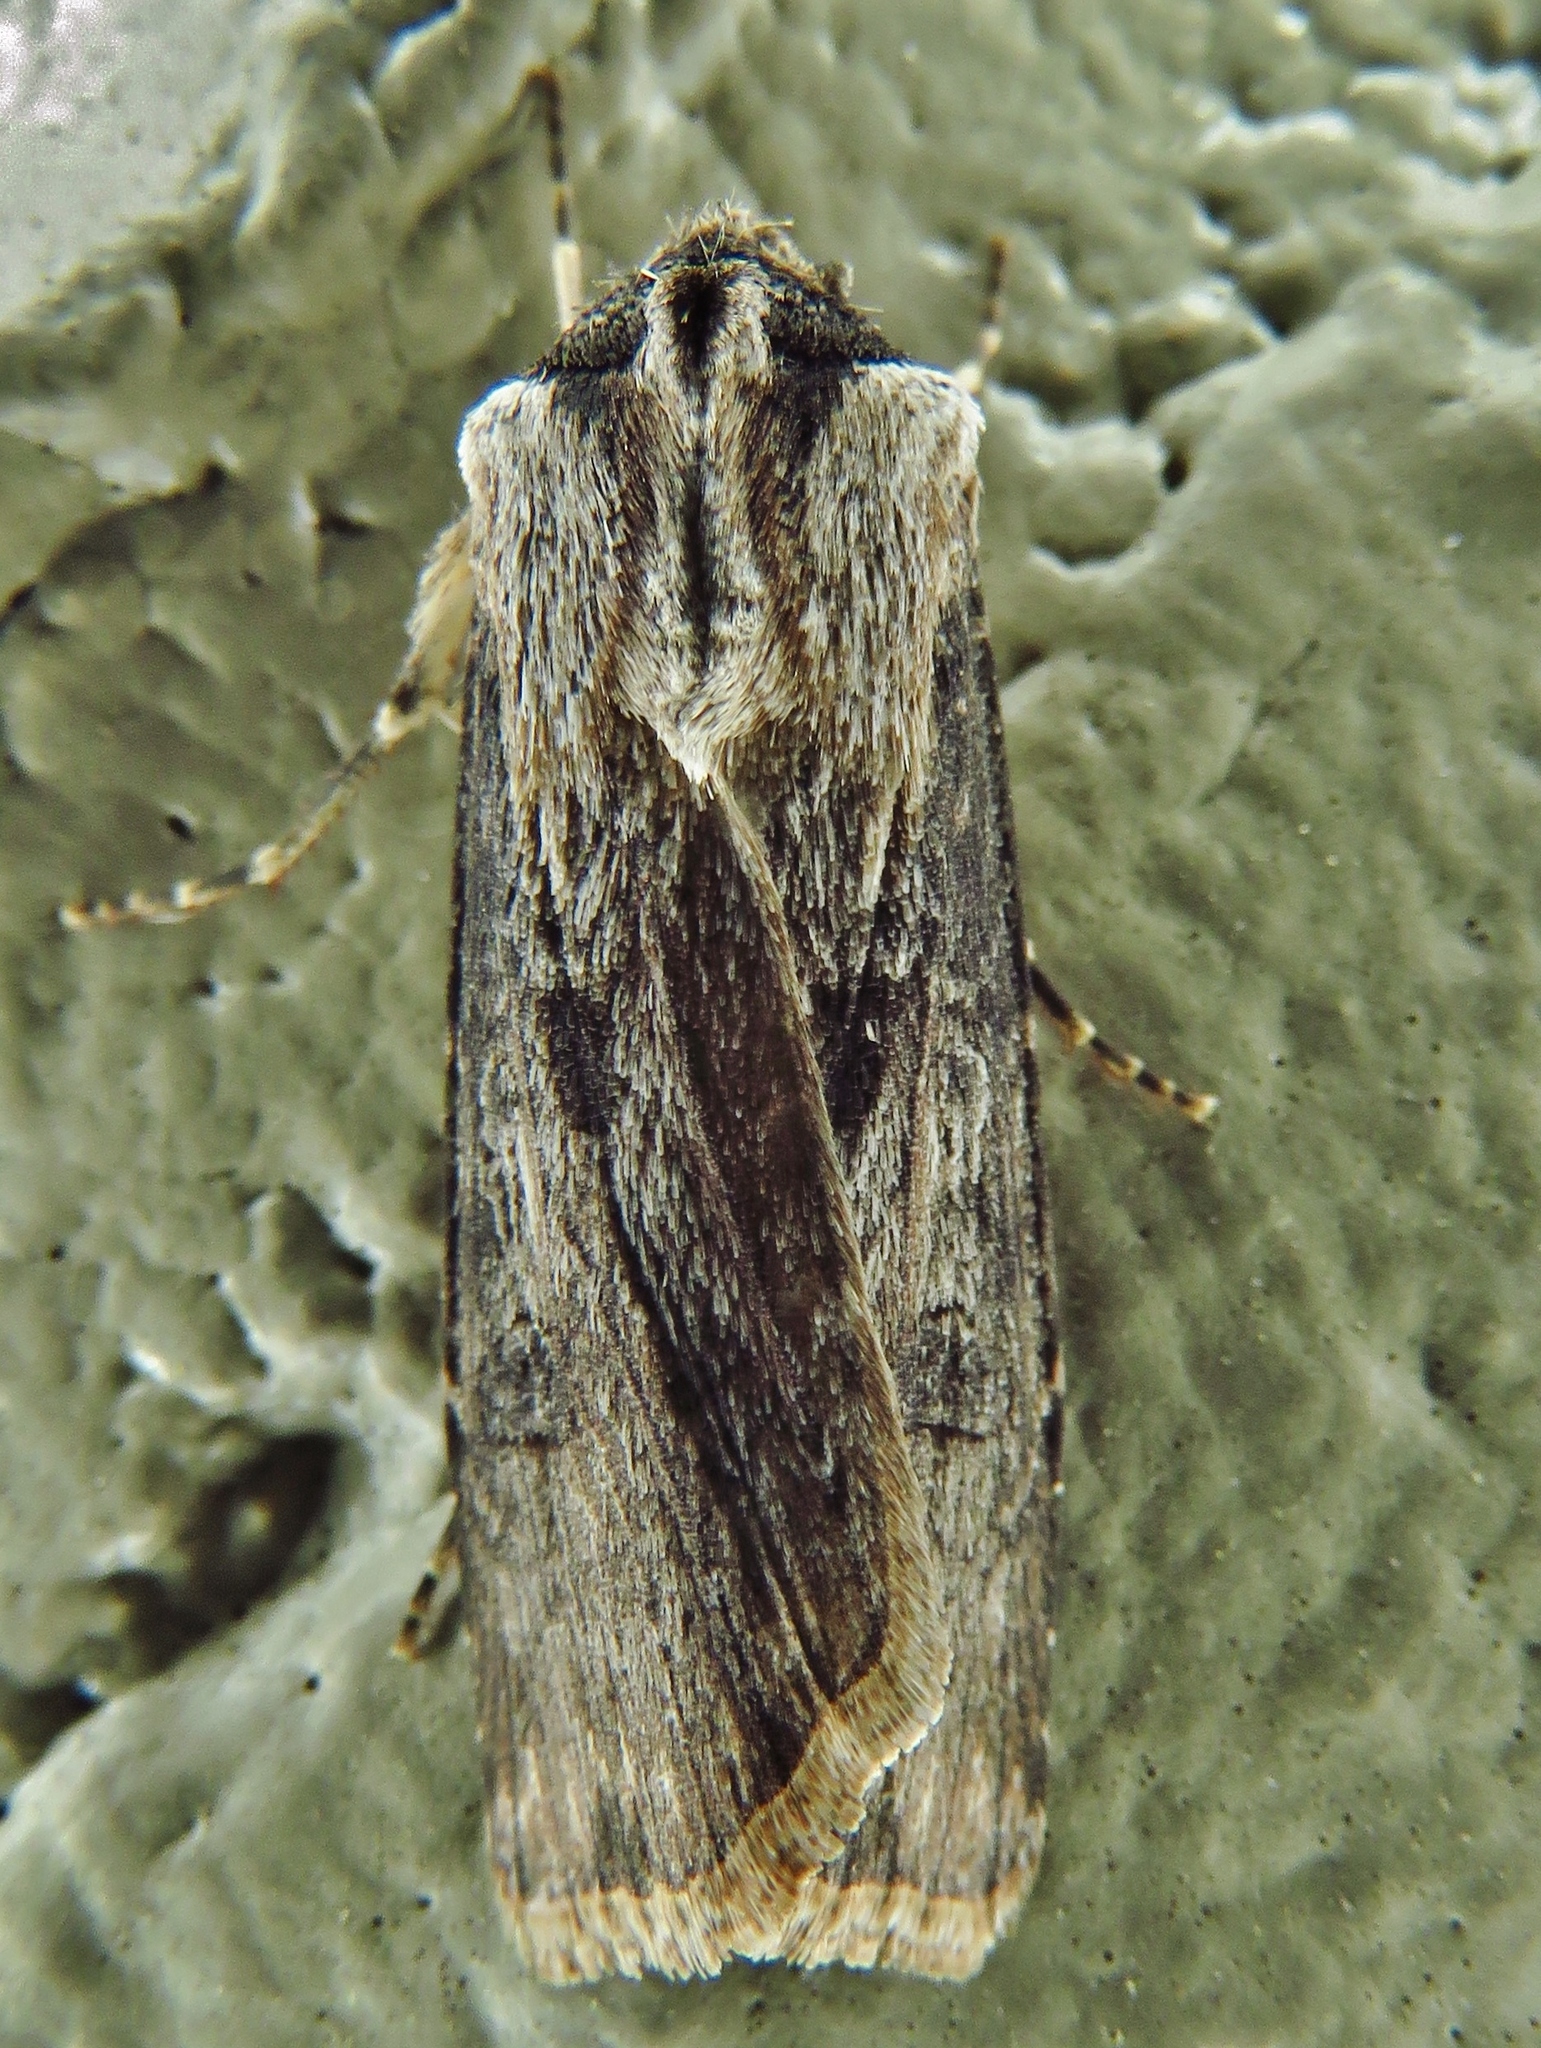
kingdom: Animalia
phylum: Arthropoda
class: Insecta
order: Lepidoptera
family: Noctuidae
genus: Agrotis
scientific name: Agrotis malefida
